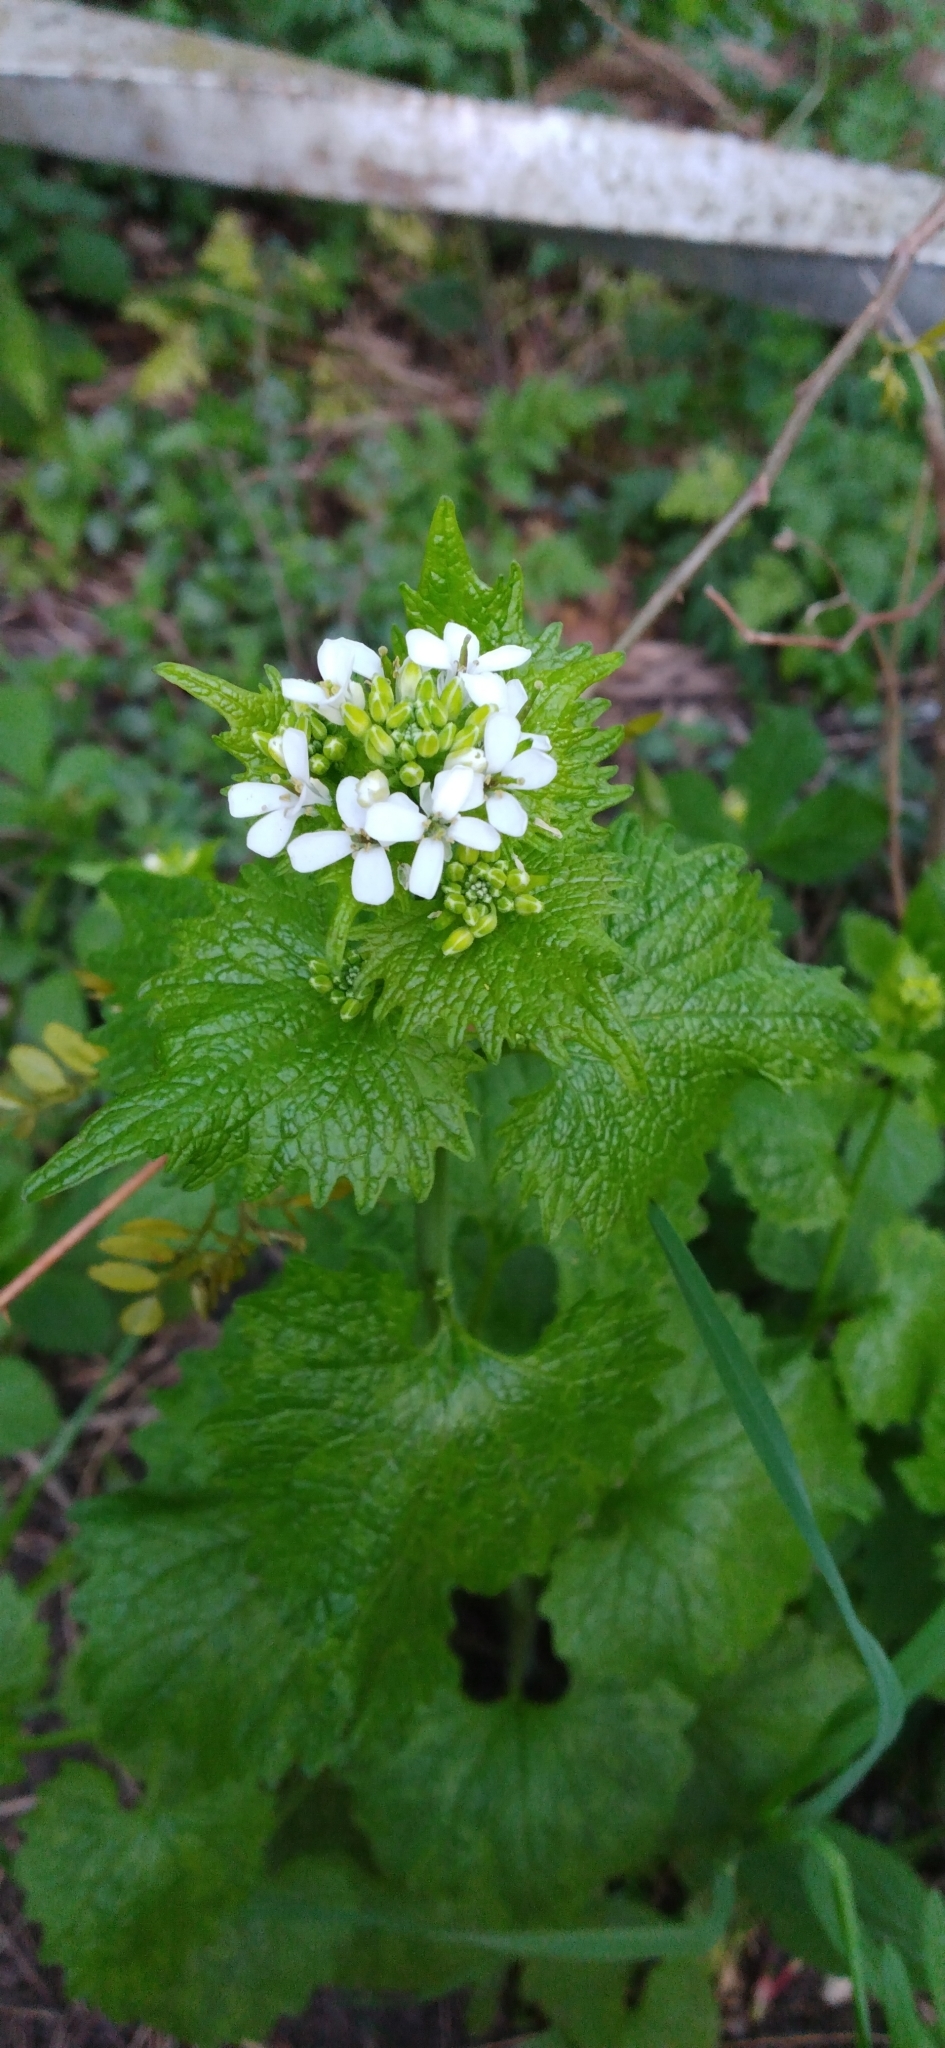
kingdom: Plantae
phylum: Tracheophyta
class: Magnoliopsida
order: Brassicales
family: Brassicaceae
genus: Alliaria
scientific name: Alliaria petiolata
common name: Garlic mustard
